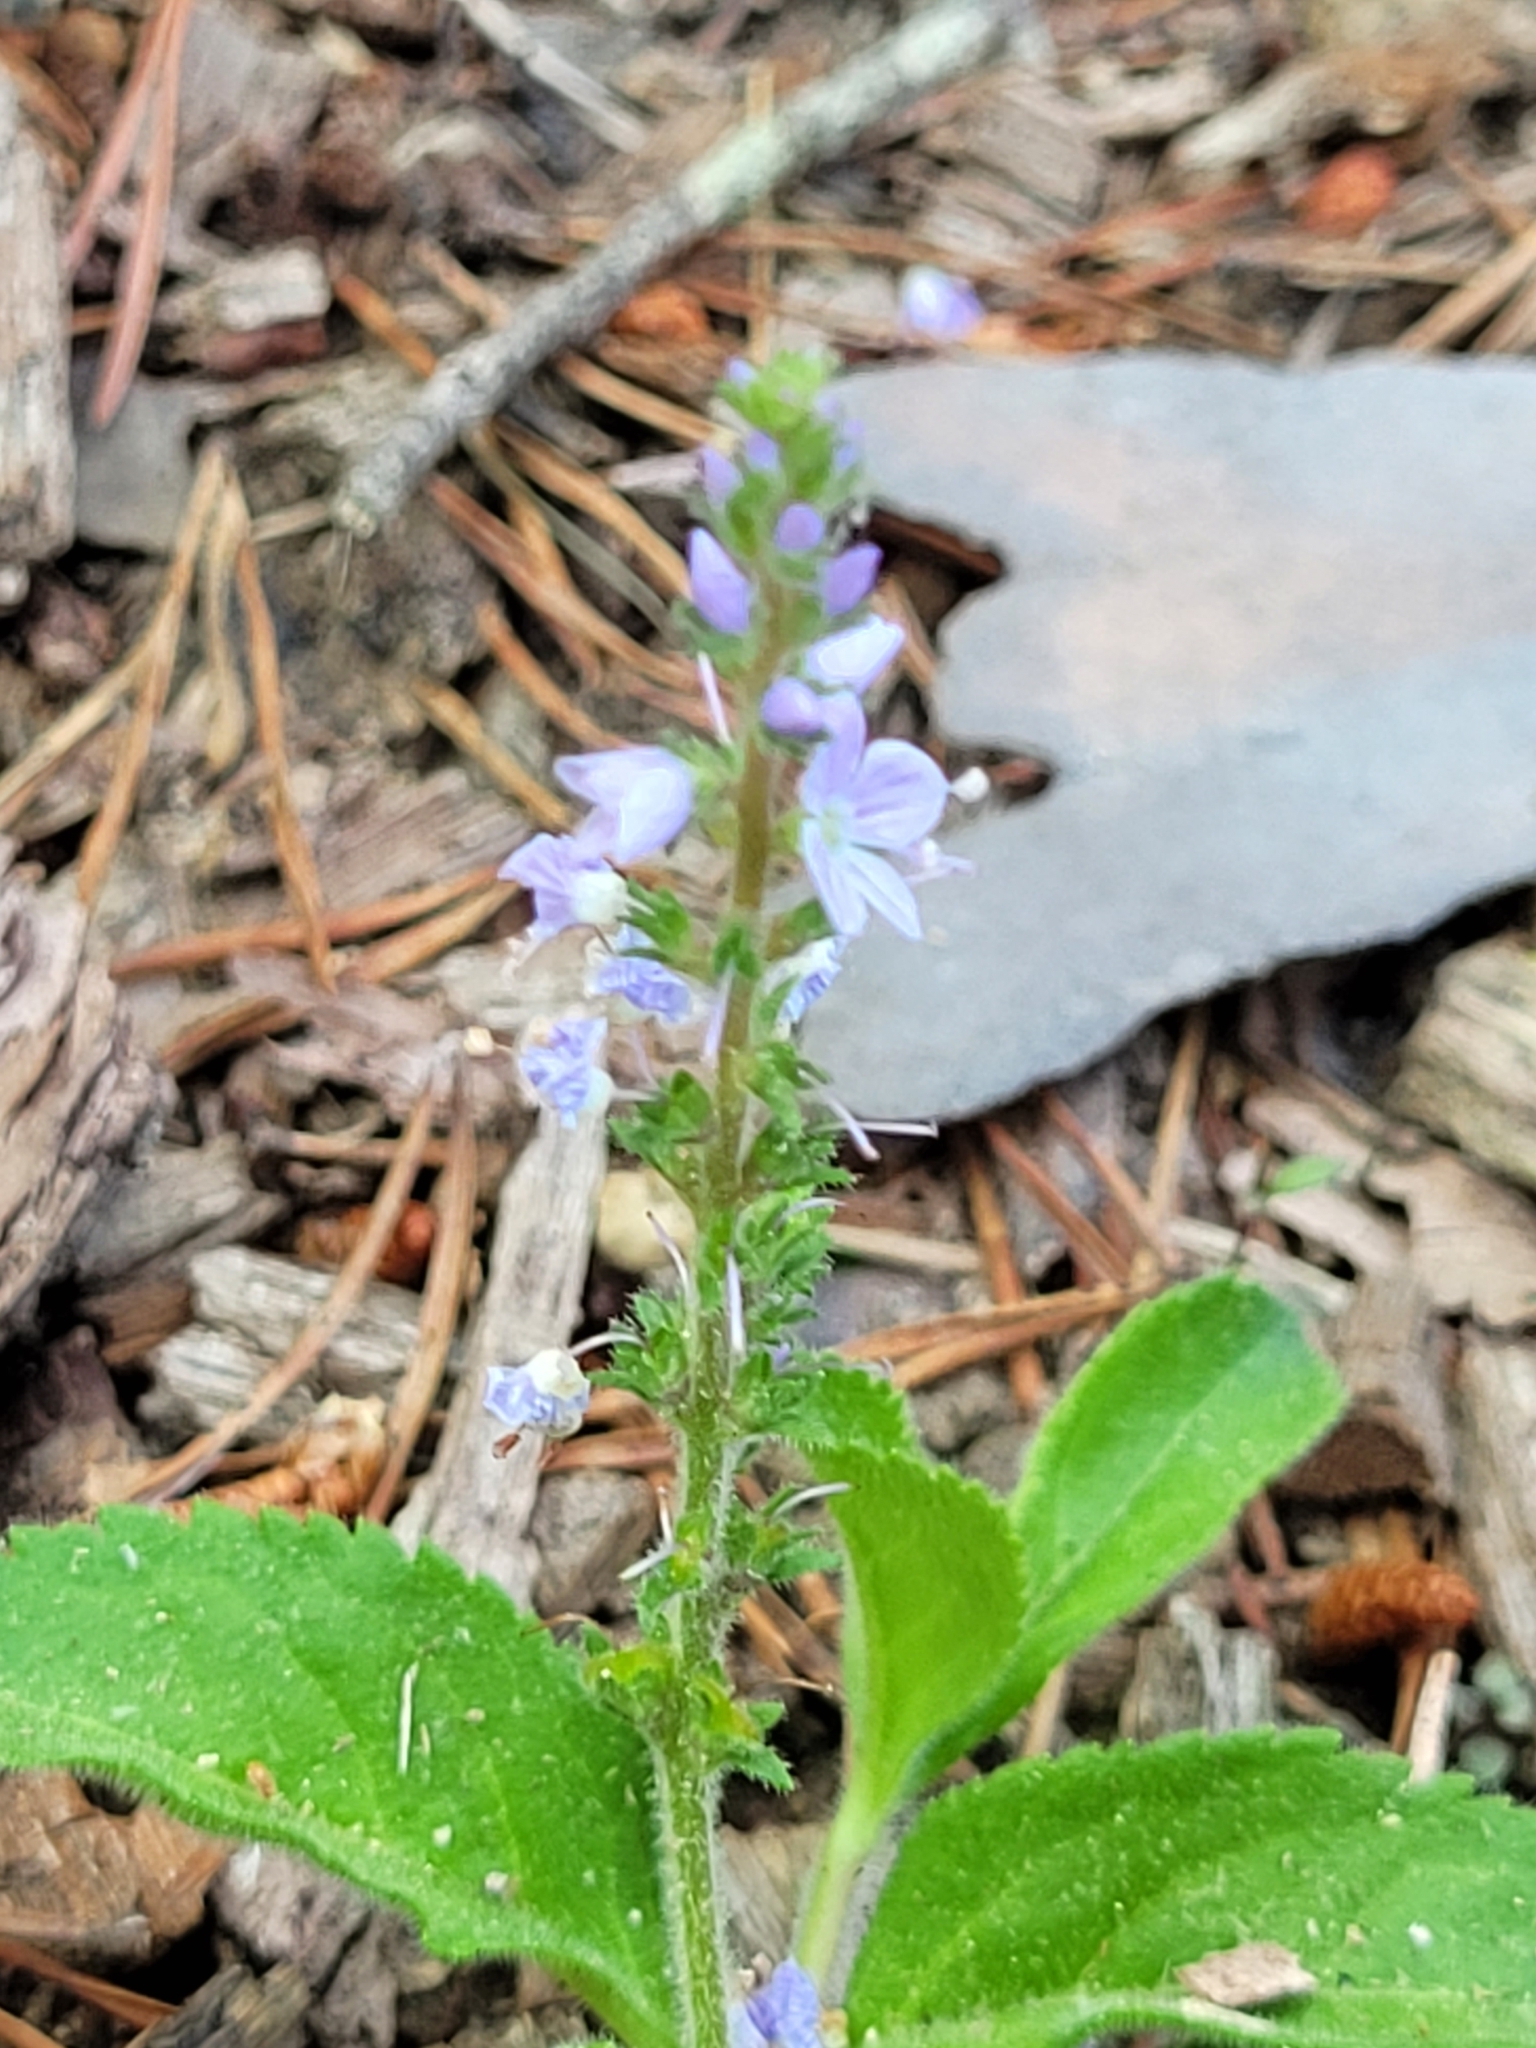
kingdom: Plantae
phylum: Tracheophyta
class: Magnoliopsida
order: Lamiales
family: Plantaginaceae
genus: Veronica
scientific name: Veronica officinalis
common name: Common speedwell
